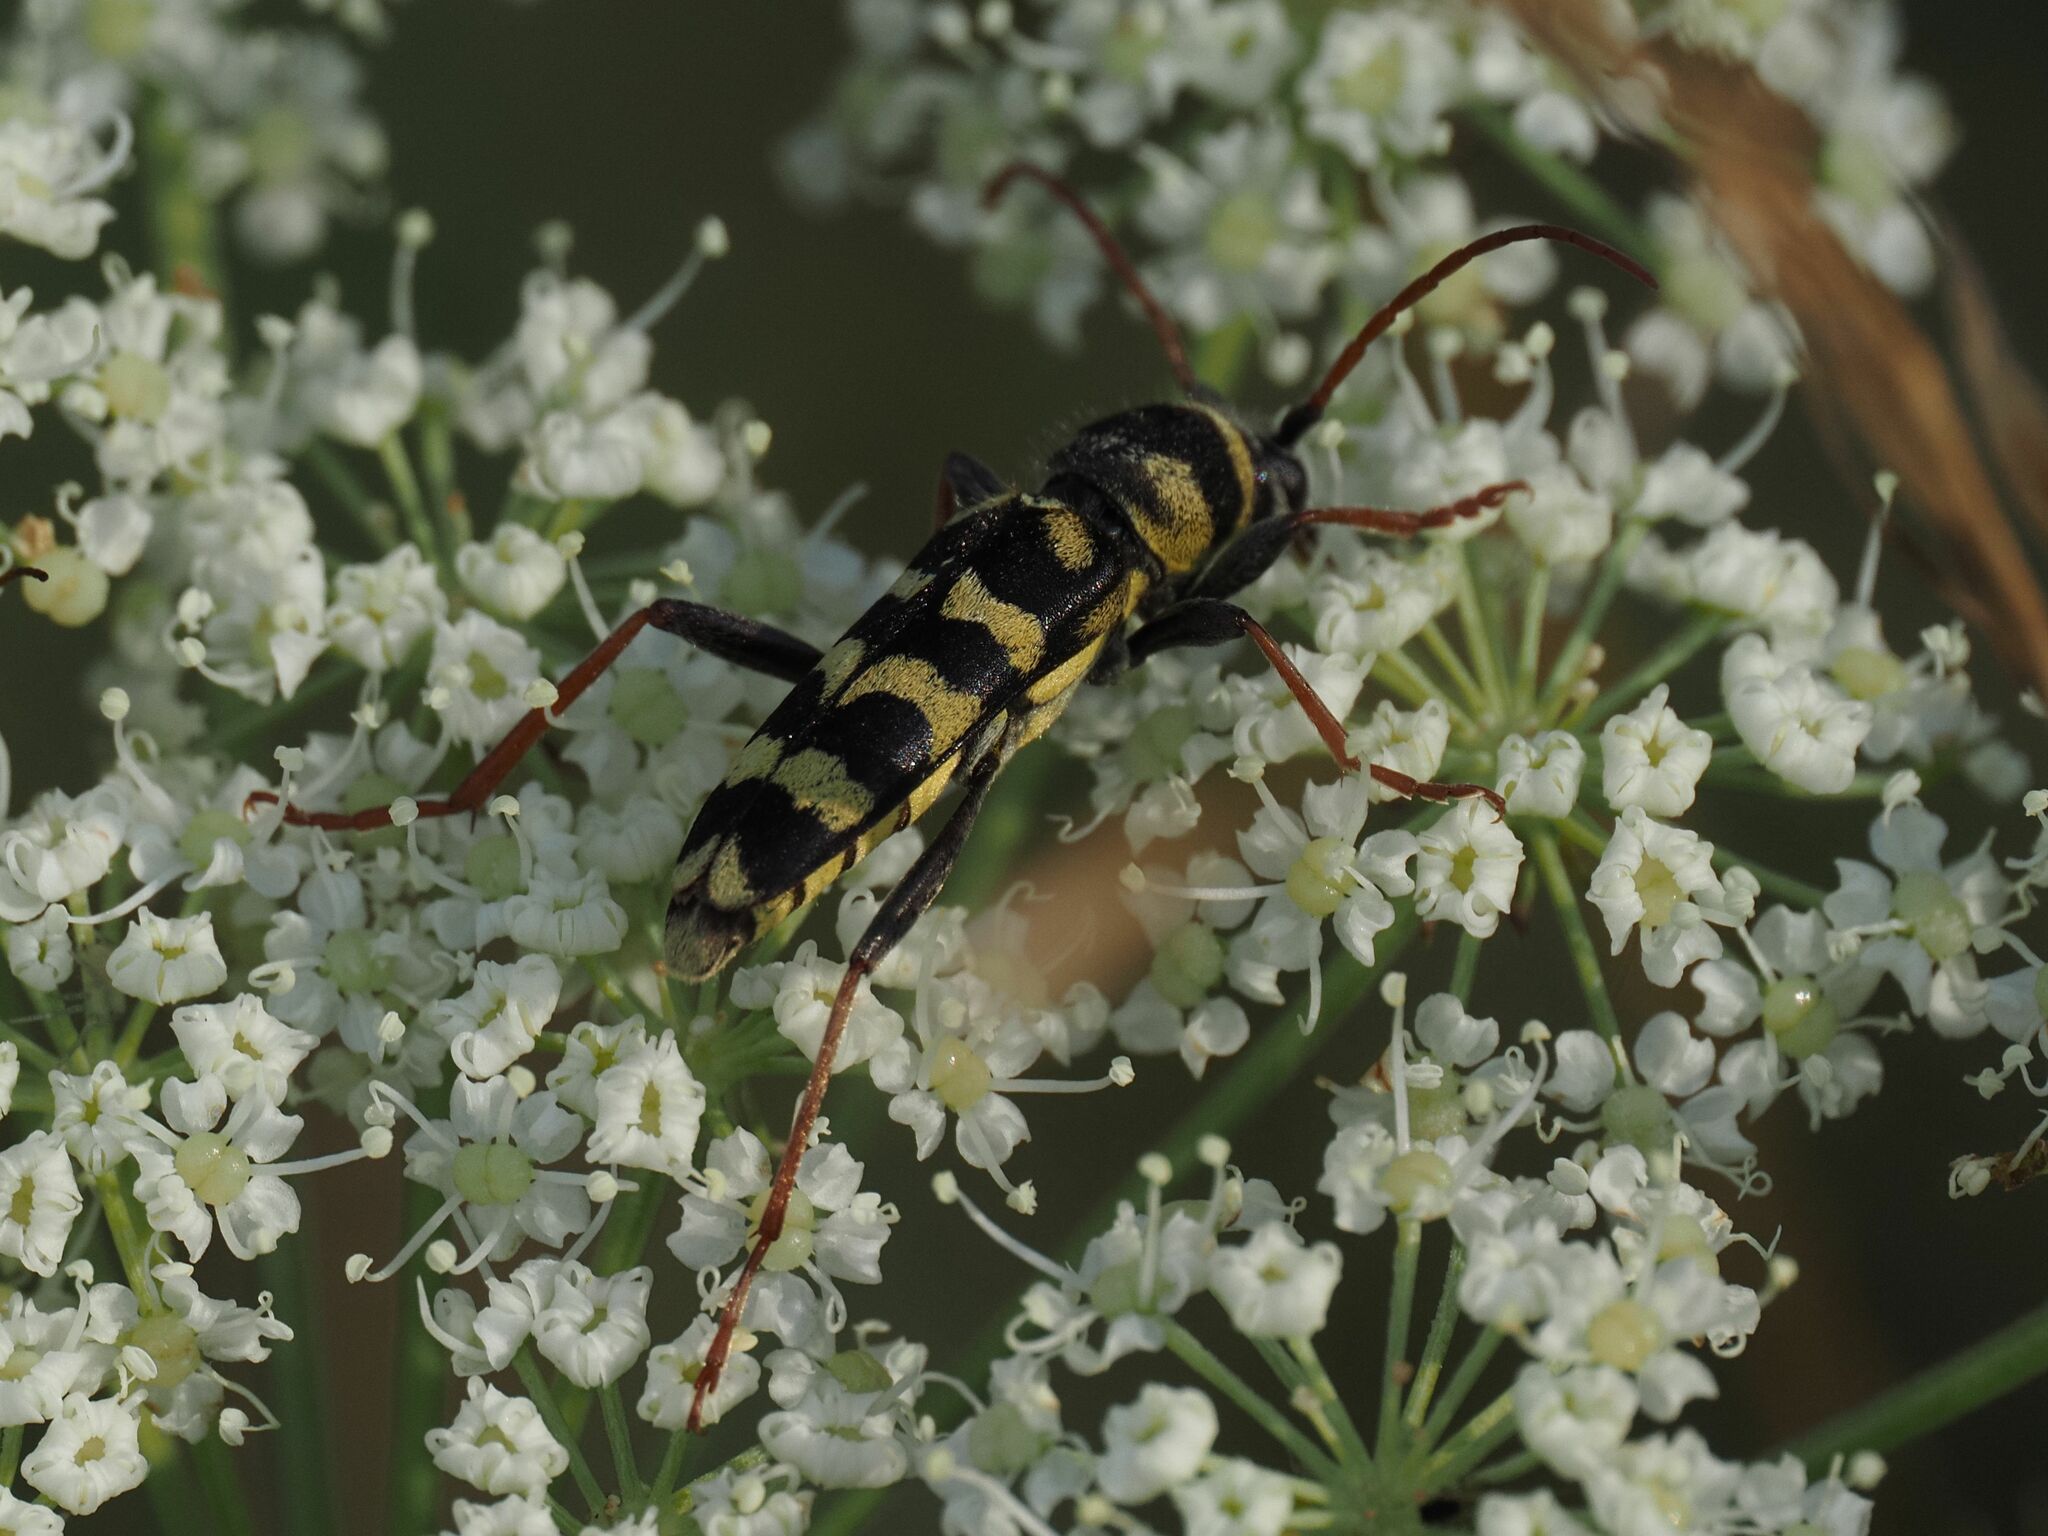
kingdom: Animalia
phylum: Arthropoda
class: Insecta
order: Coleoptera
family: Cerambycidae
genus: Plagionotus
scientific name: Plagionotus floralis
